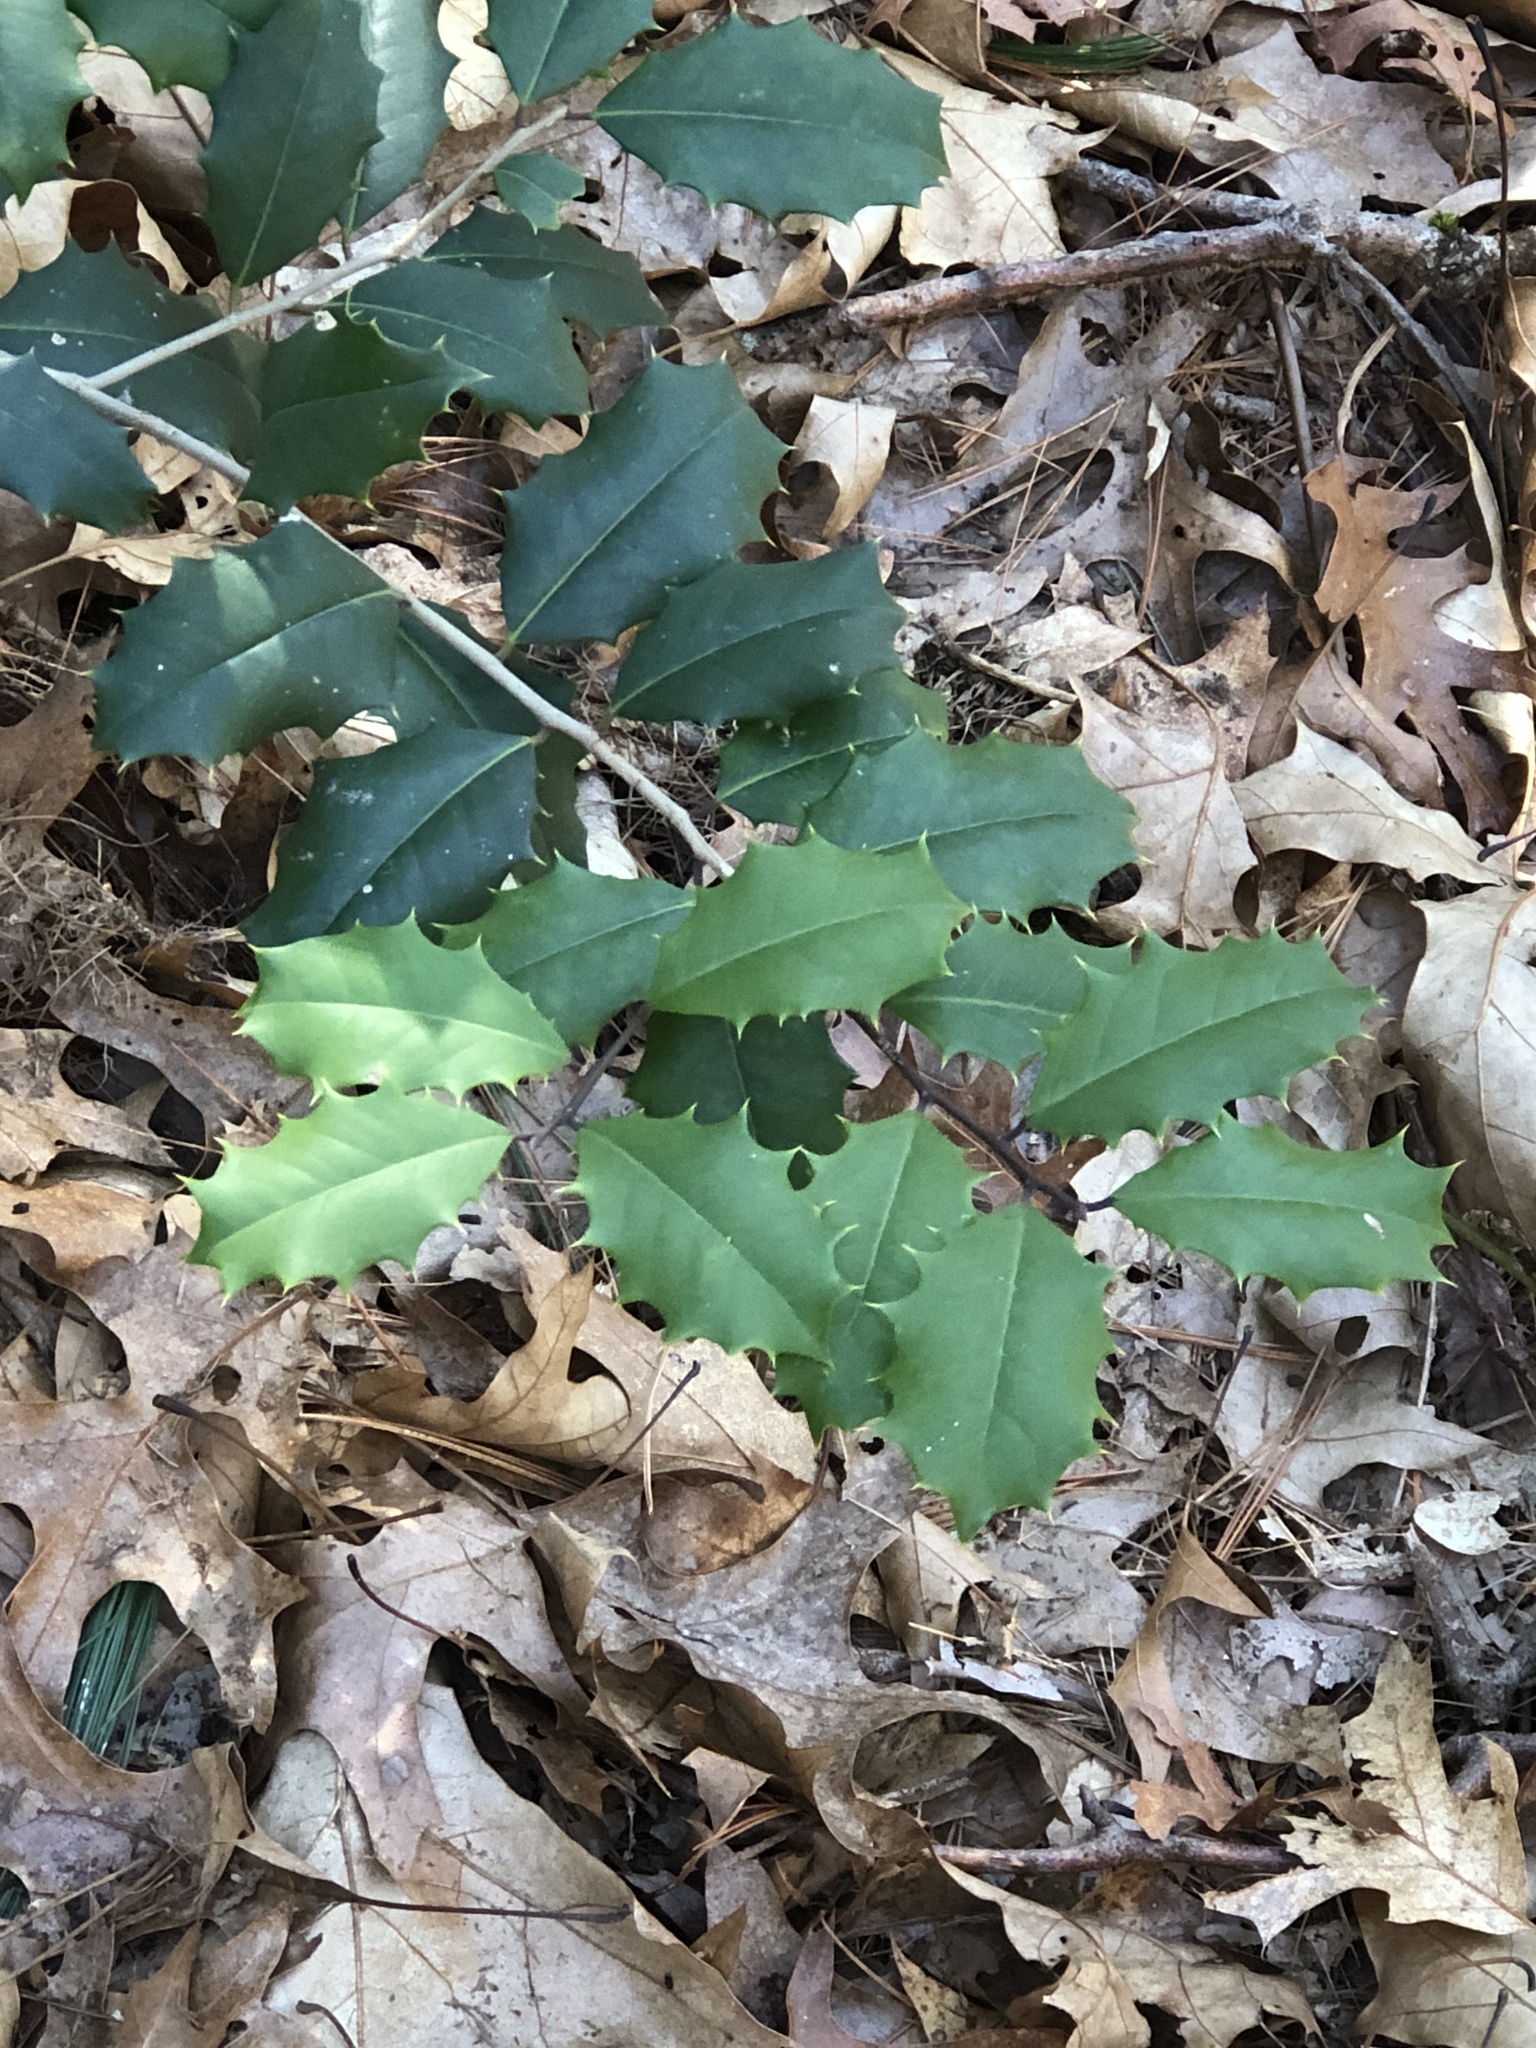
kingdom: Plantae
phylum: Tracheophyta
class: Magnoliopsida
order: Aquifoliales
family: Aquifoliaceae
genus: Ilex
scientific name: Ilex opaca
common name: American holly
